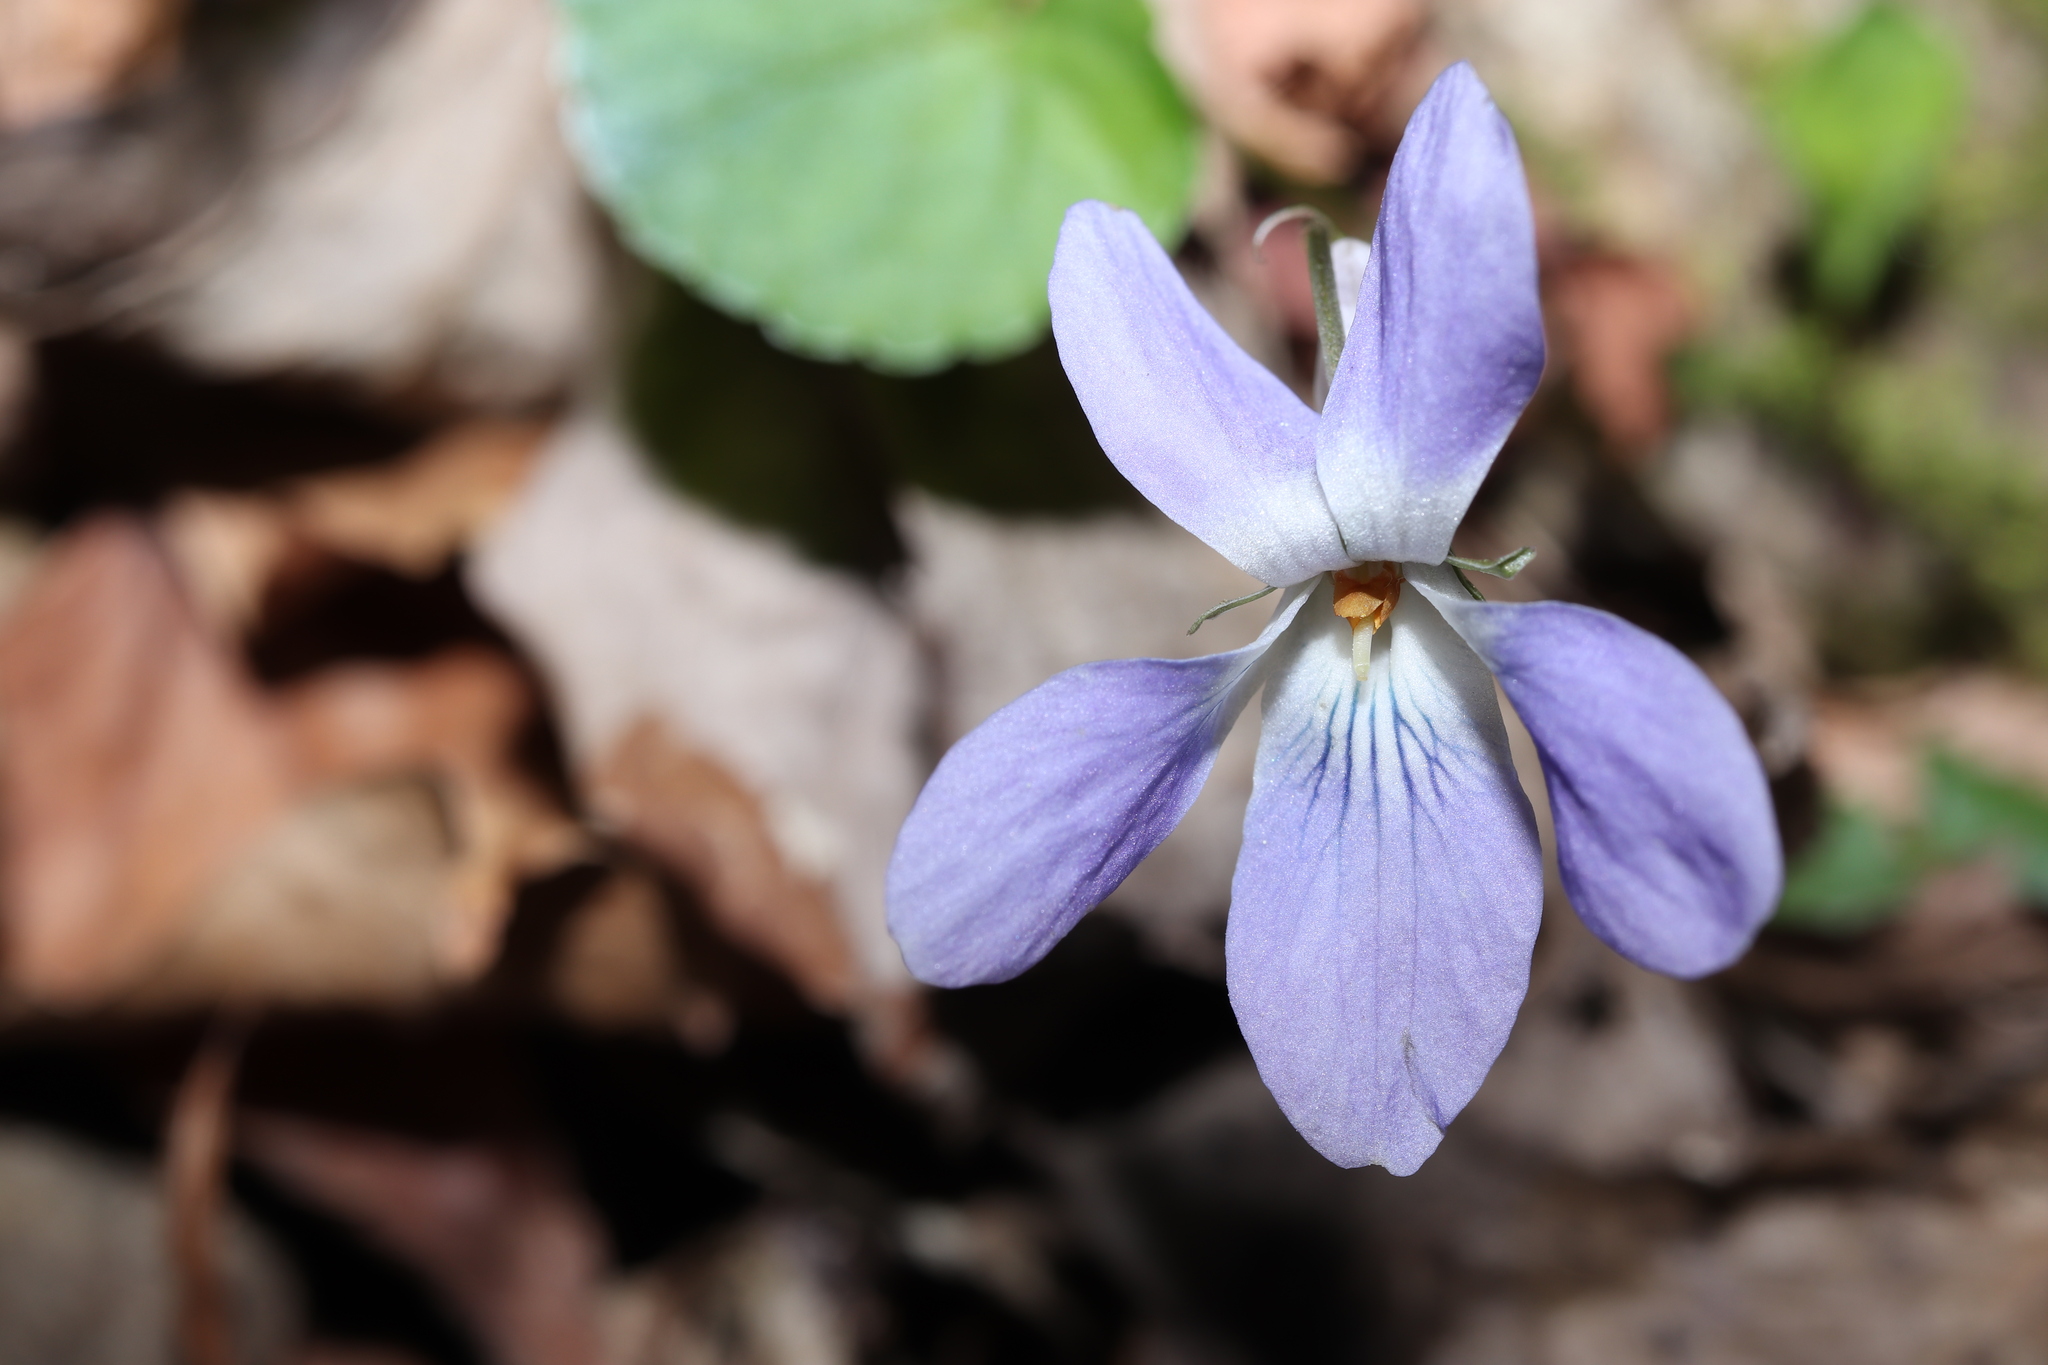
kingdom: Plantae
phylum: Tracheophyta
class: Magnoliopsida
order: Malpighiales
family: Violaceae
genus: Viola
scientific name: Viola grypoceras
